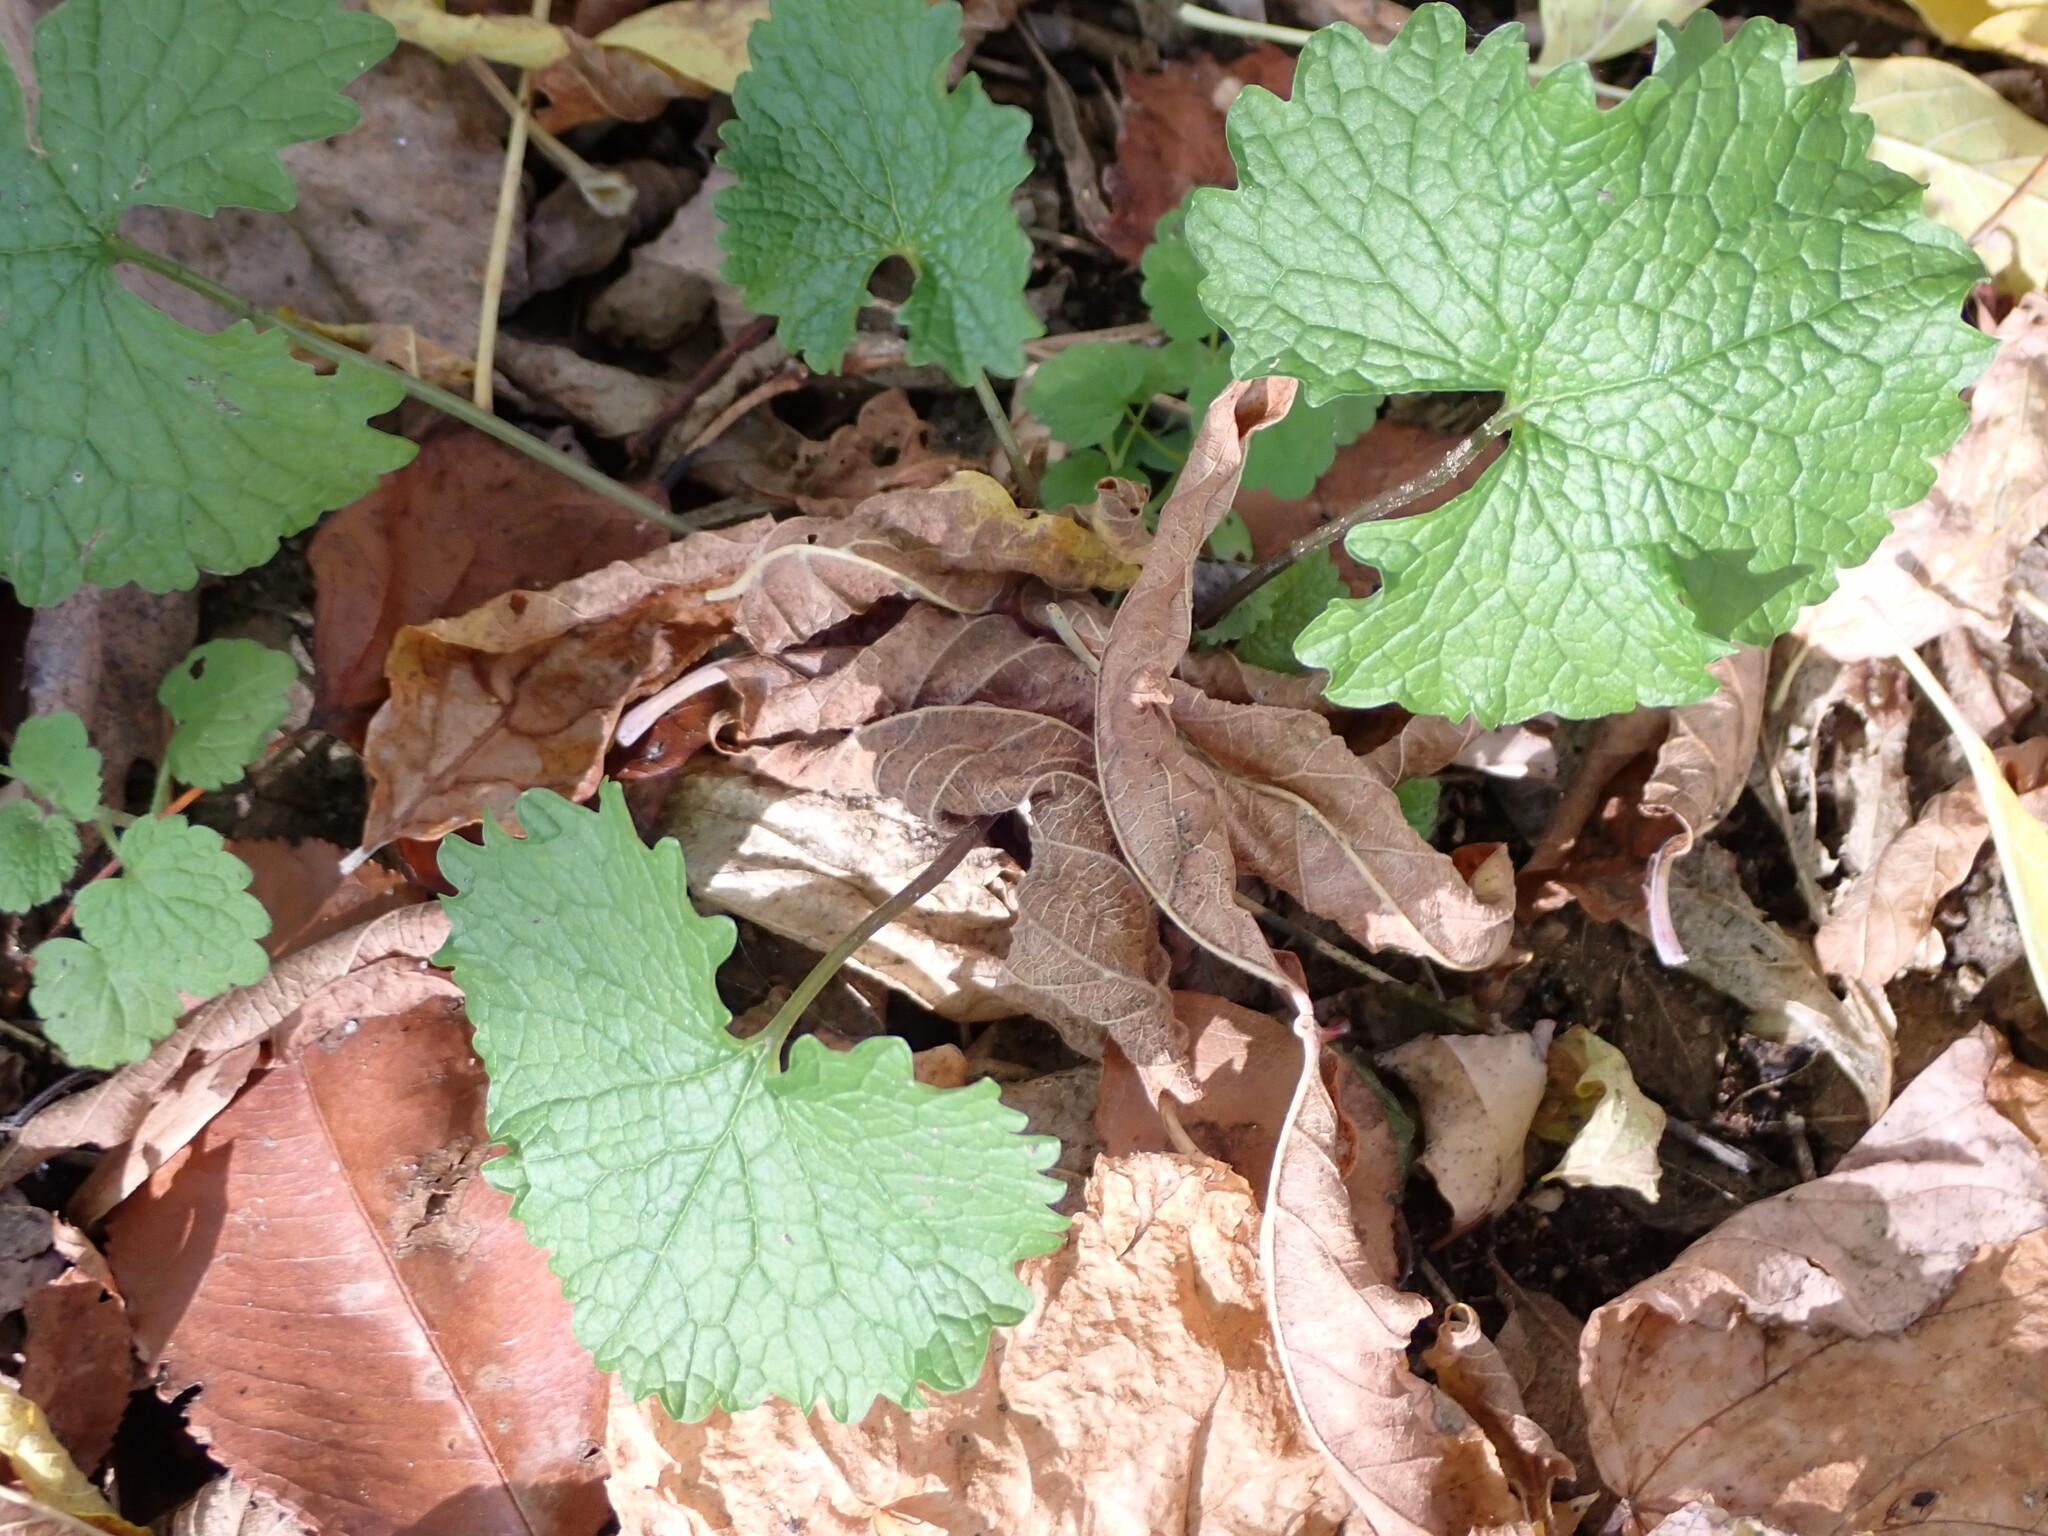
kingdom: Plantae
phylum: Tracheophyta
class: Magnoliopsida
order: Brassicales
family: Brassicaceae
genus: Alliaria
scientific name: Alliaria petiolata
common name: Garlic mustard
